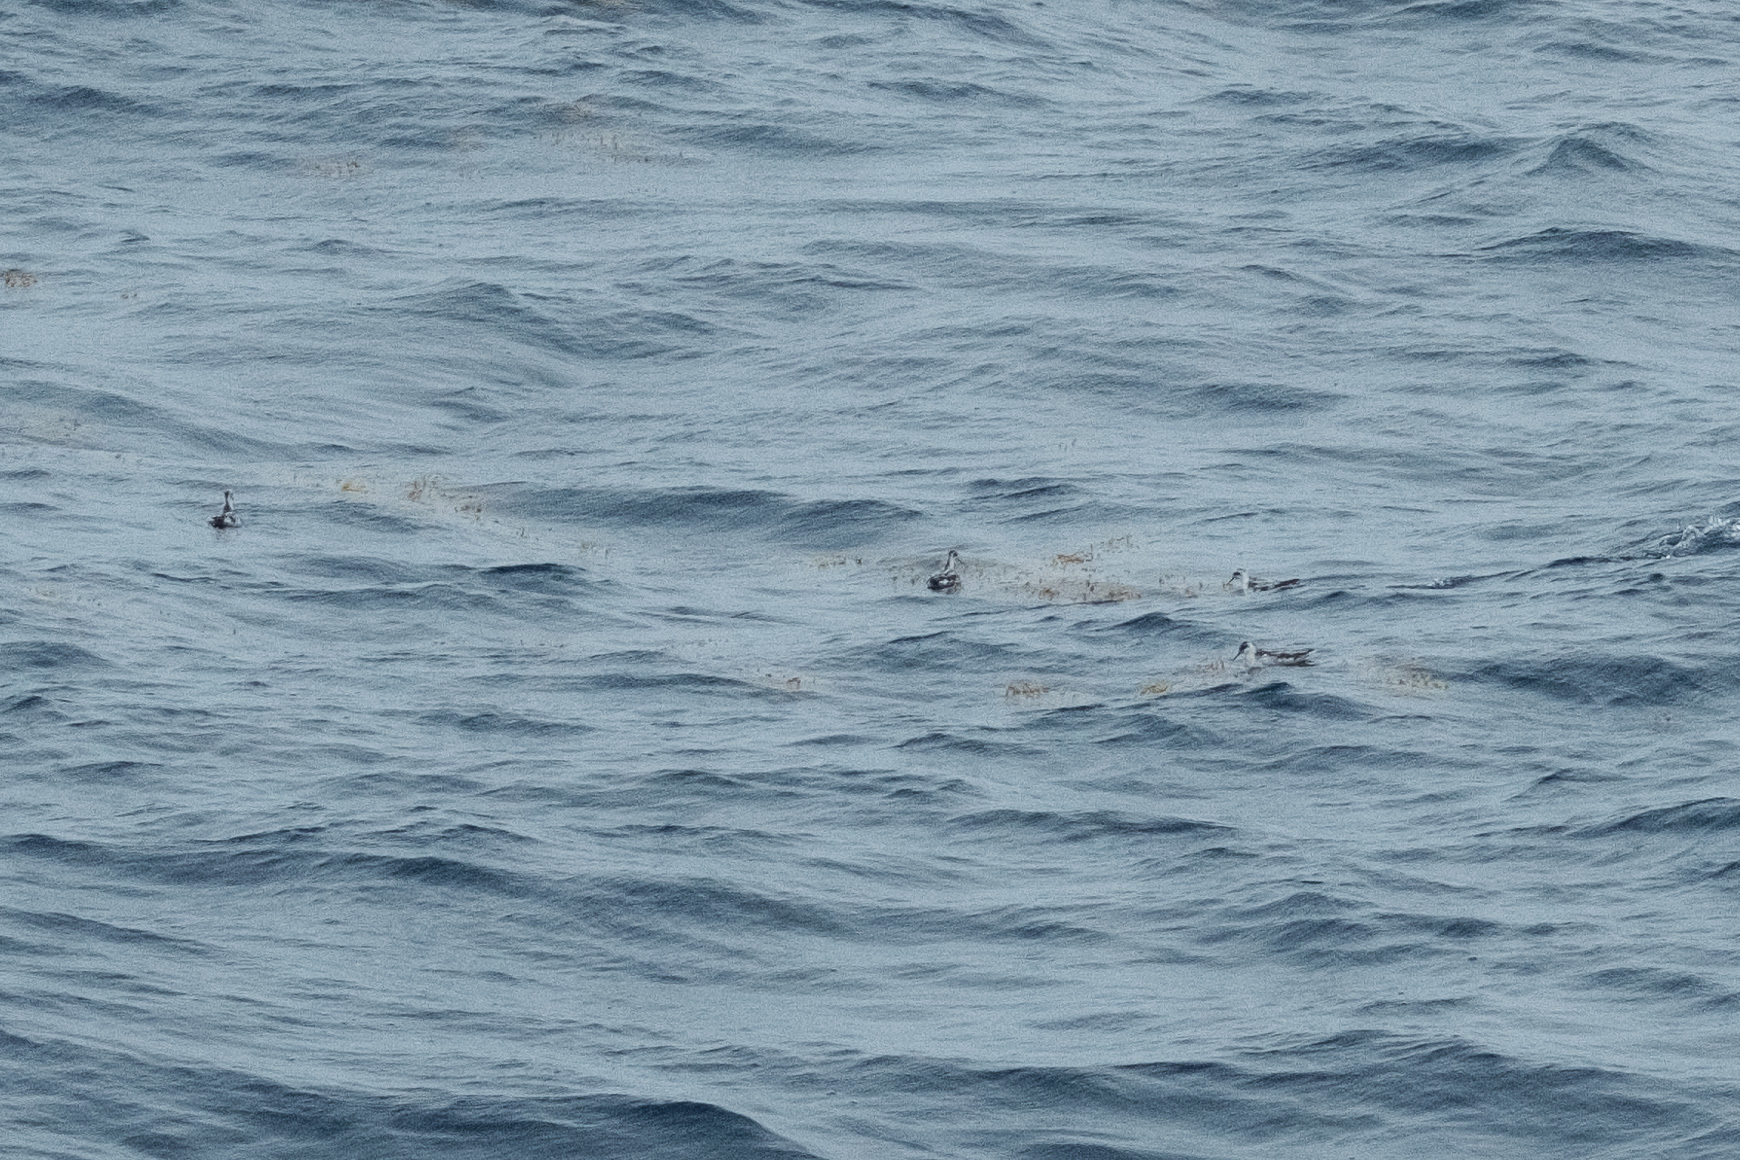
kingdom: Animalia
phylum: Chordata
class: Aves
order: Charadriiformes
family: Scolopacidae
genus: Phalaropus
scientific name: Phalaropus lobatus
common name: Red-necked phalarope
